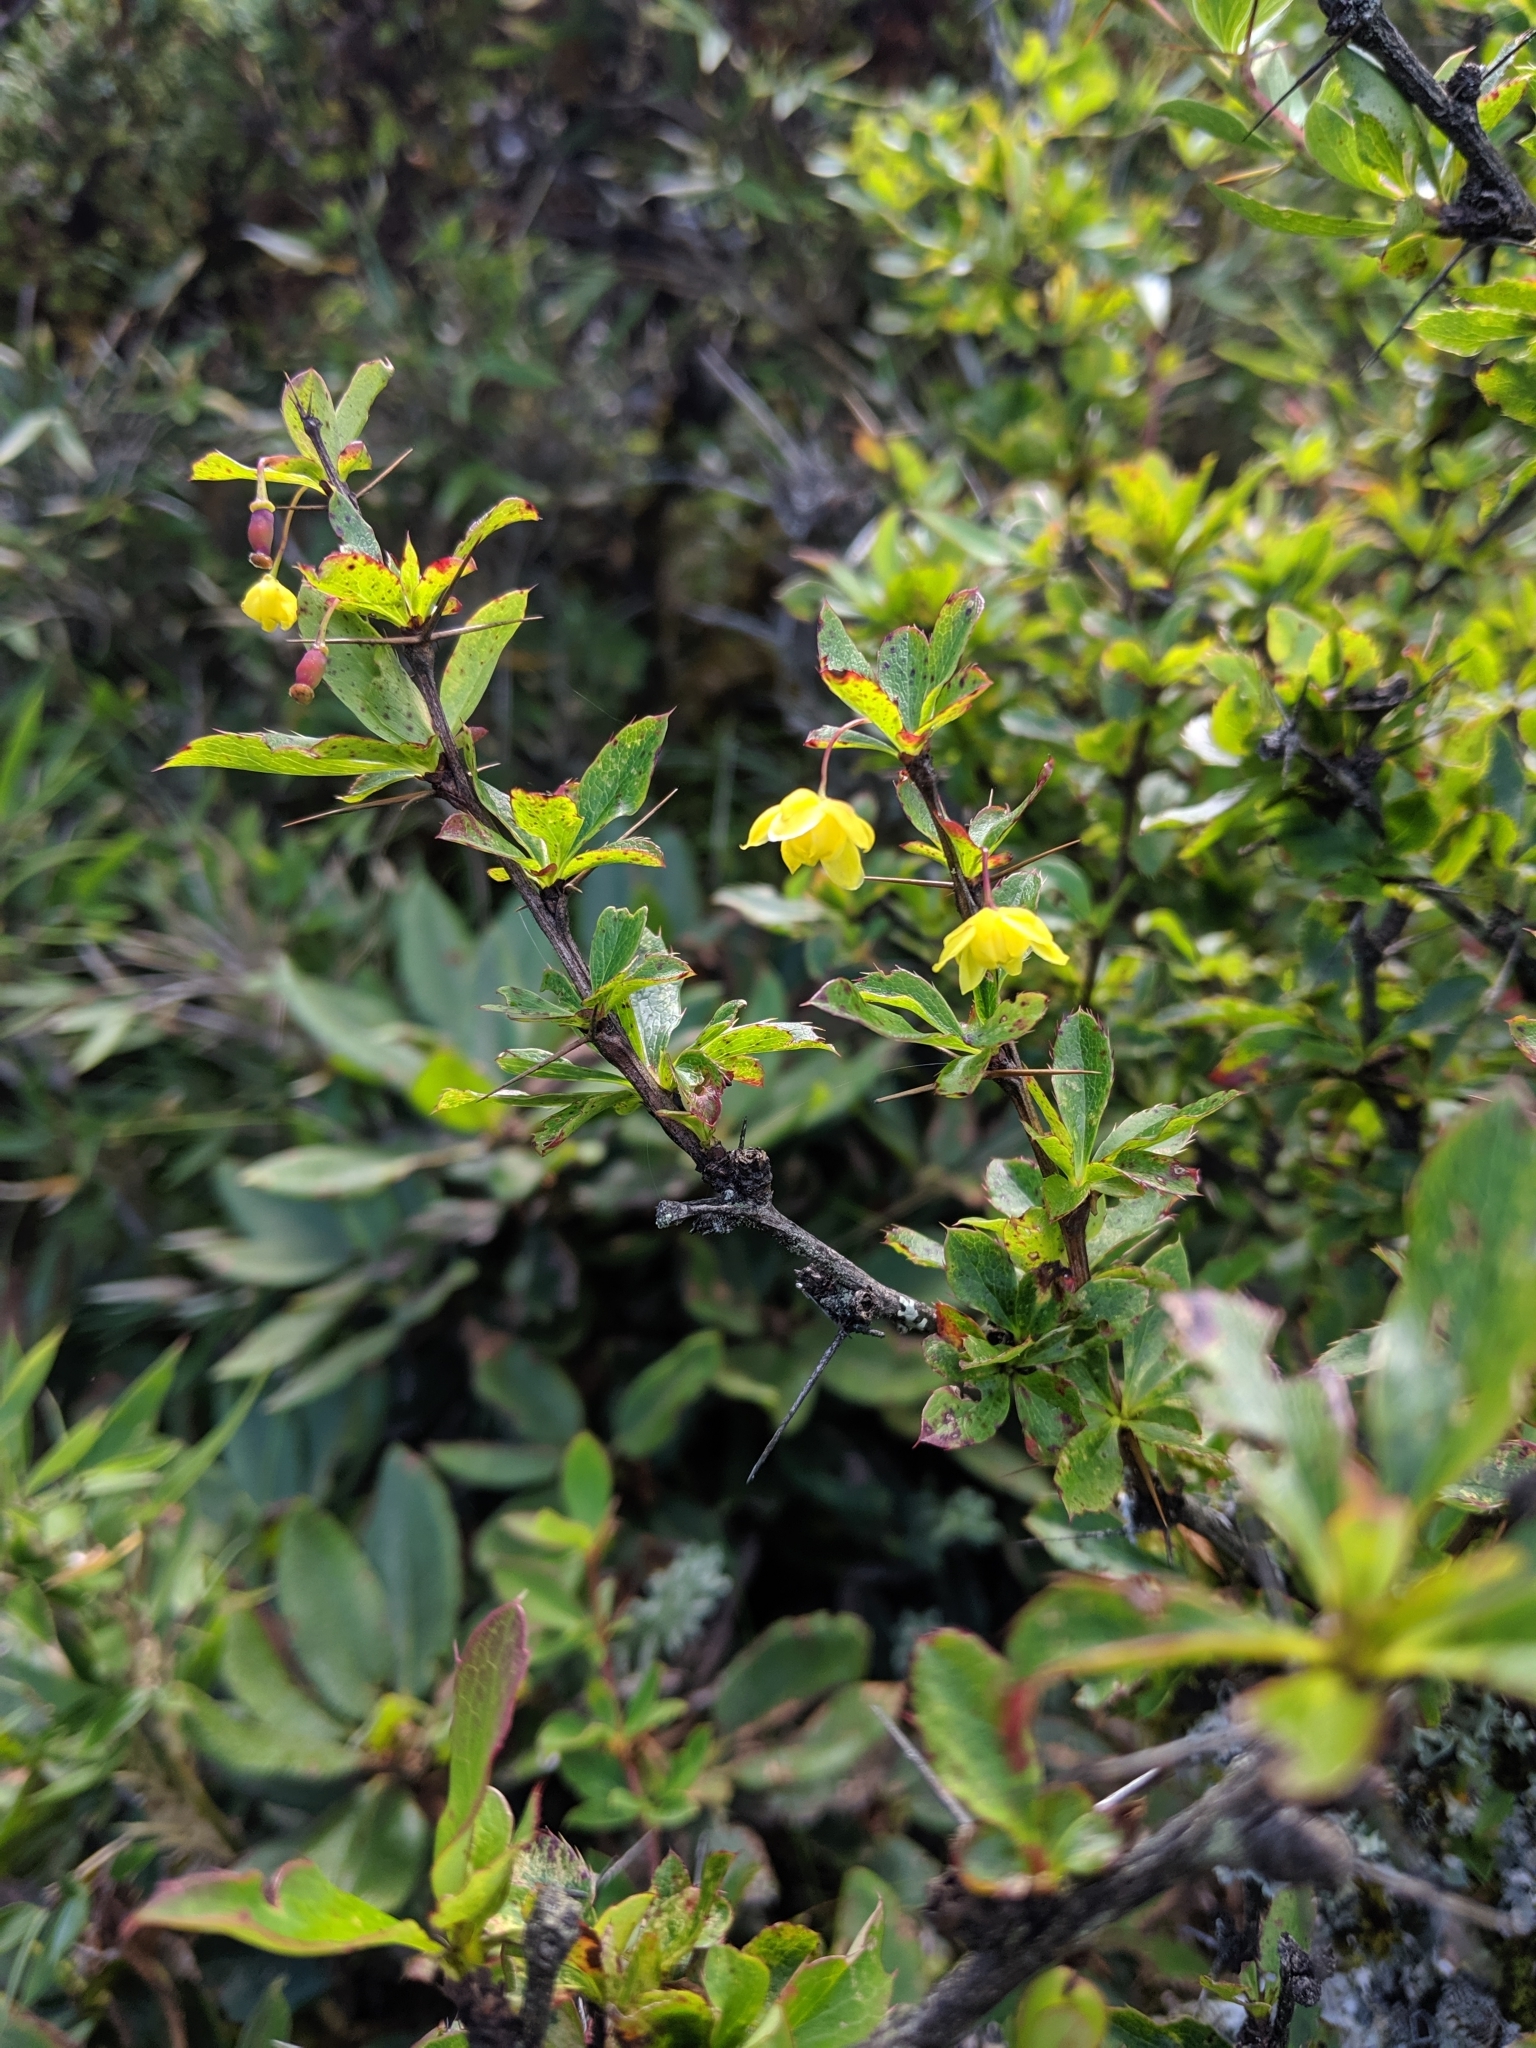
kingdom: Plantae
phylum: Tracheophyta
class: Magnoliopsida
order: Ranunculales
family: Berberidaceae
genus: Berberis
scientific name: Berberis morrisonensis
